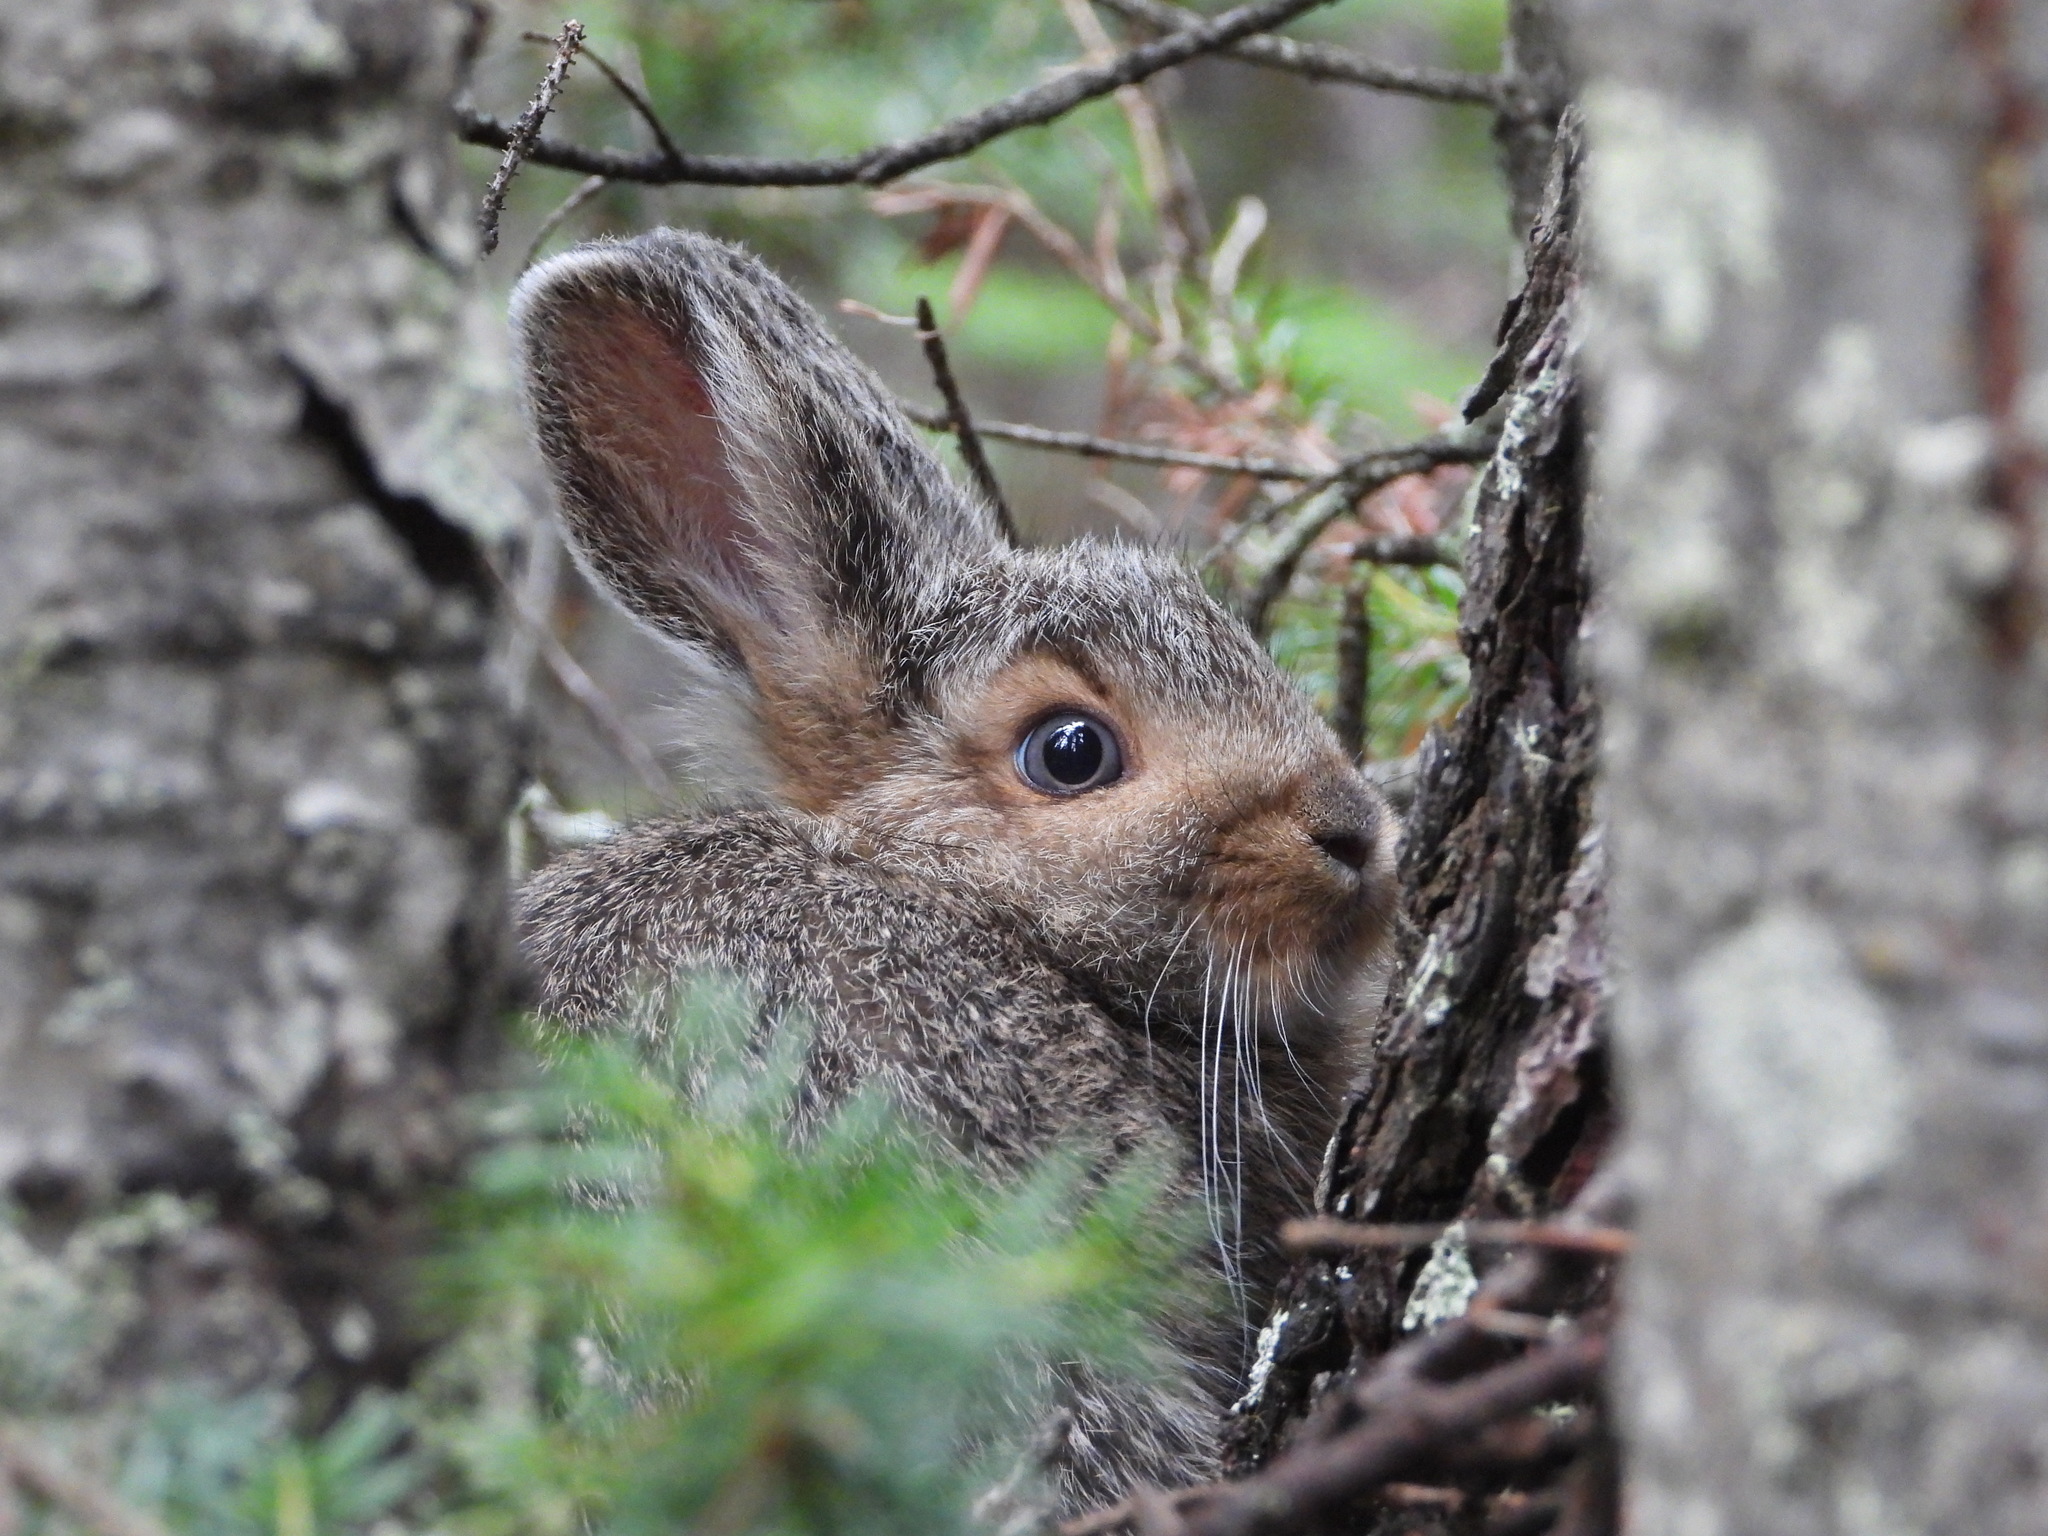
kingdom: Animalia
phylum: Chordata
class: Mammalia
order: Lagomorpha
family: Leporidae
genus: Lepus
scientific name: Lepus americanus
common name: Snowshoe hare
